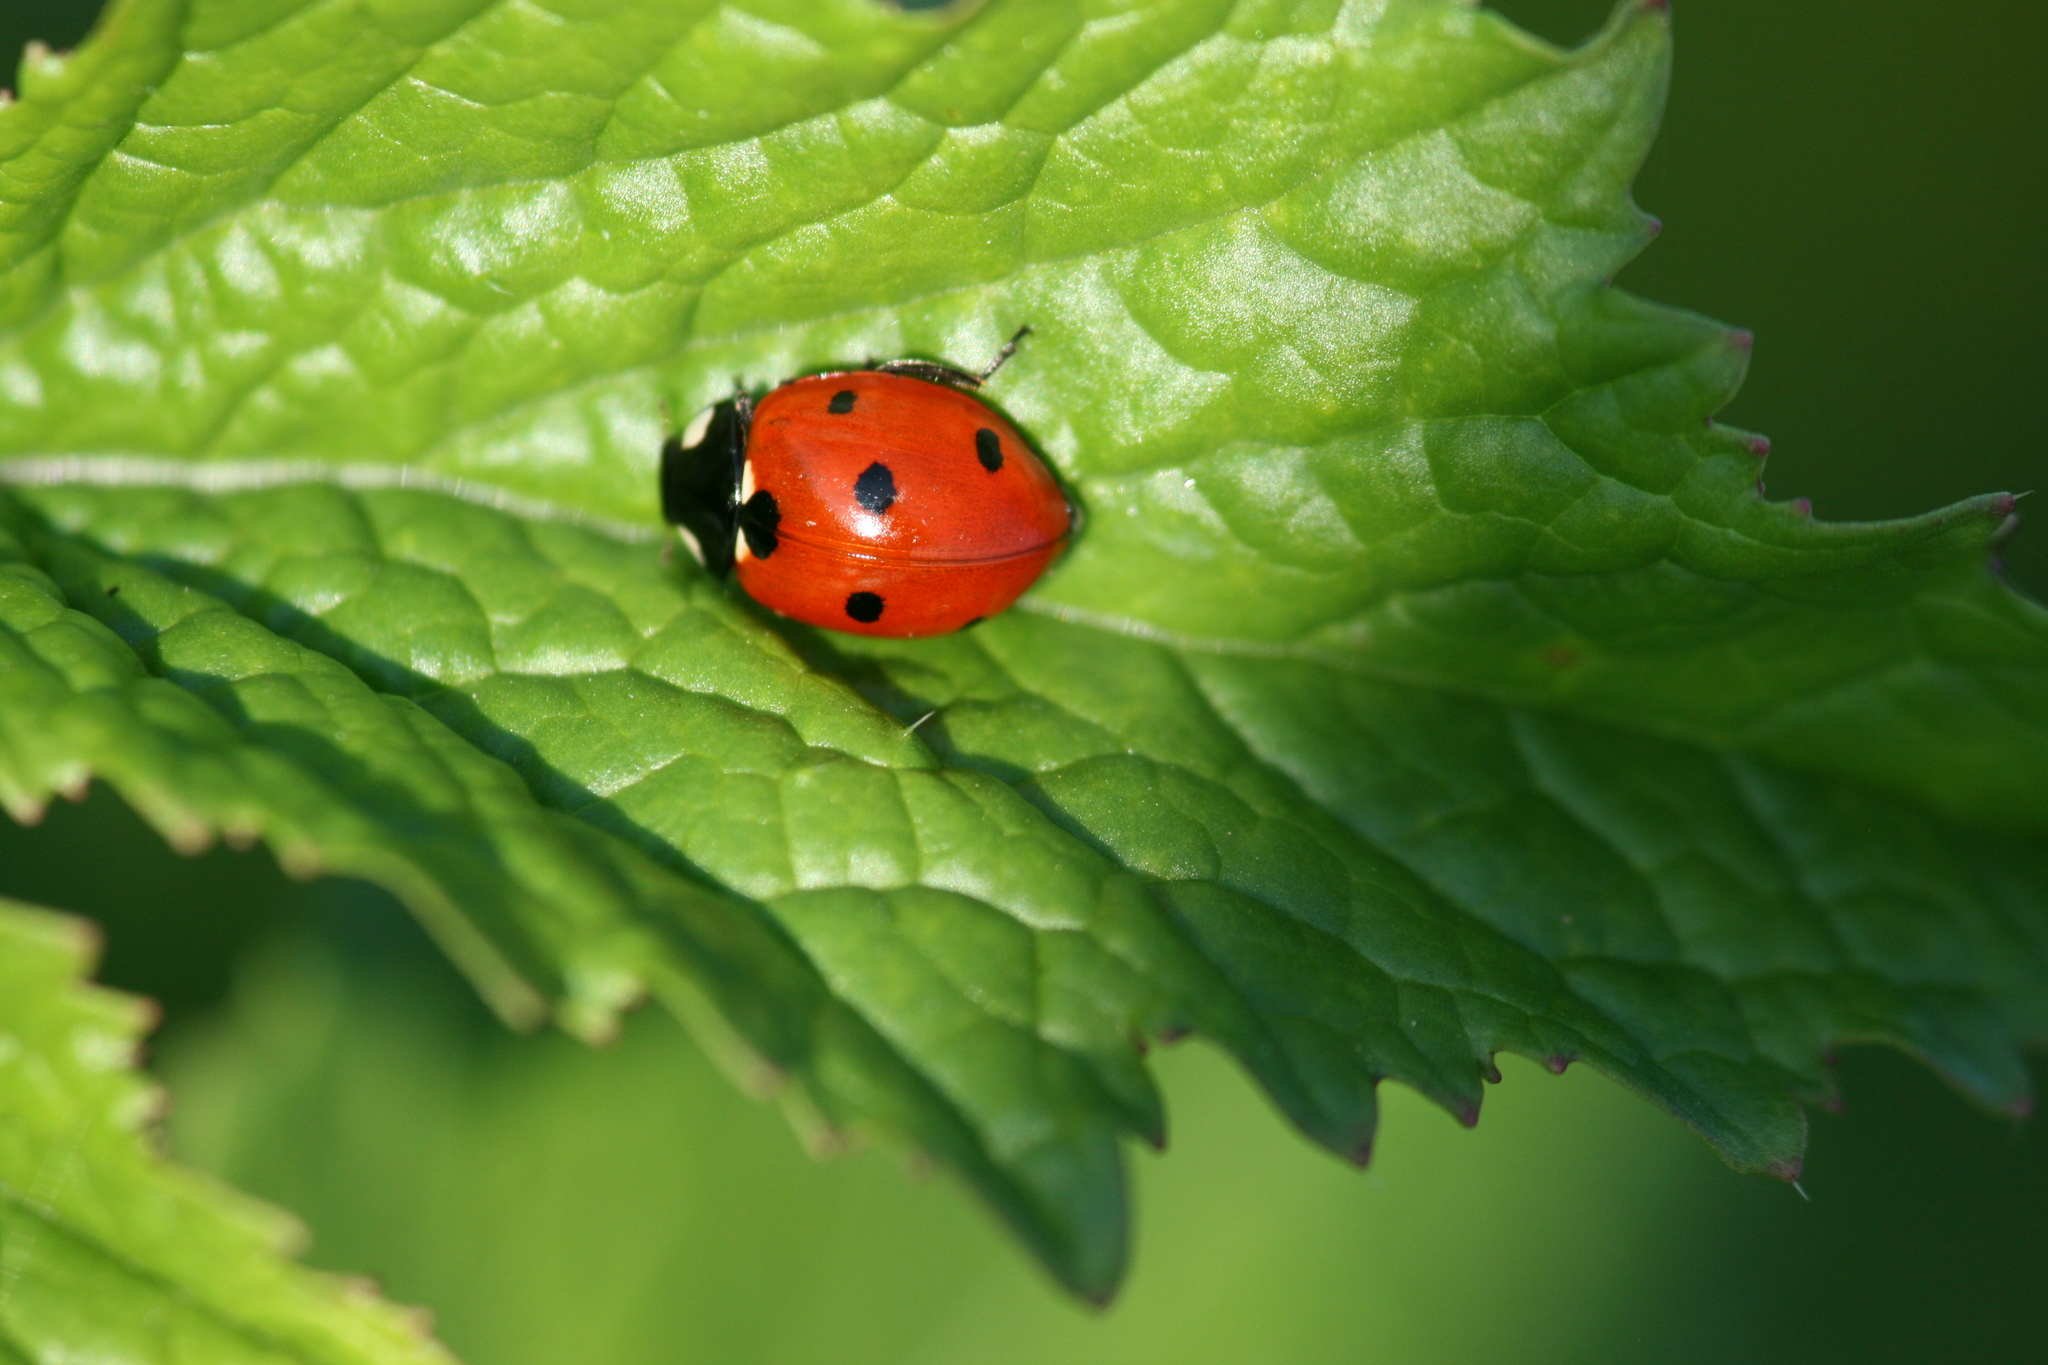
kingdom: Animalia
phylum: Arthropoda
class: Insecta
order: Coleoptera
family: Coccinellidae
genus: Coccinella
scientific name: Coccinella septempunctata
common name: Sevenspotted lady beetle
